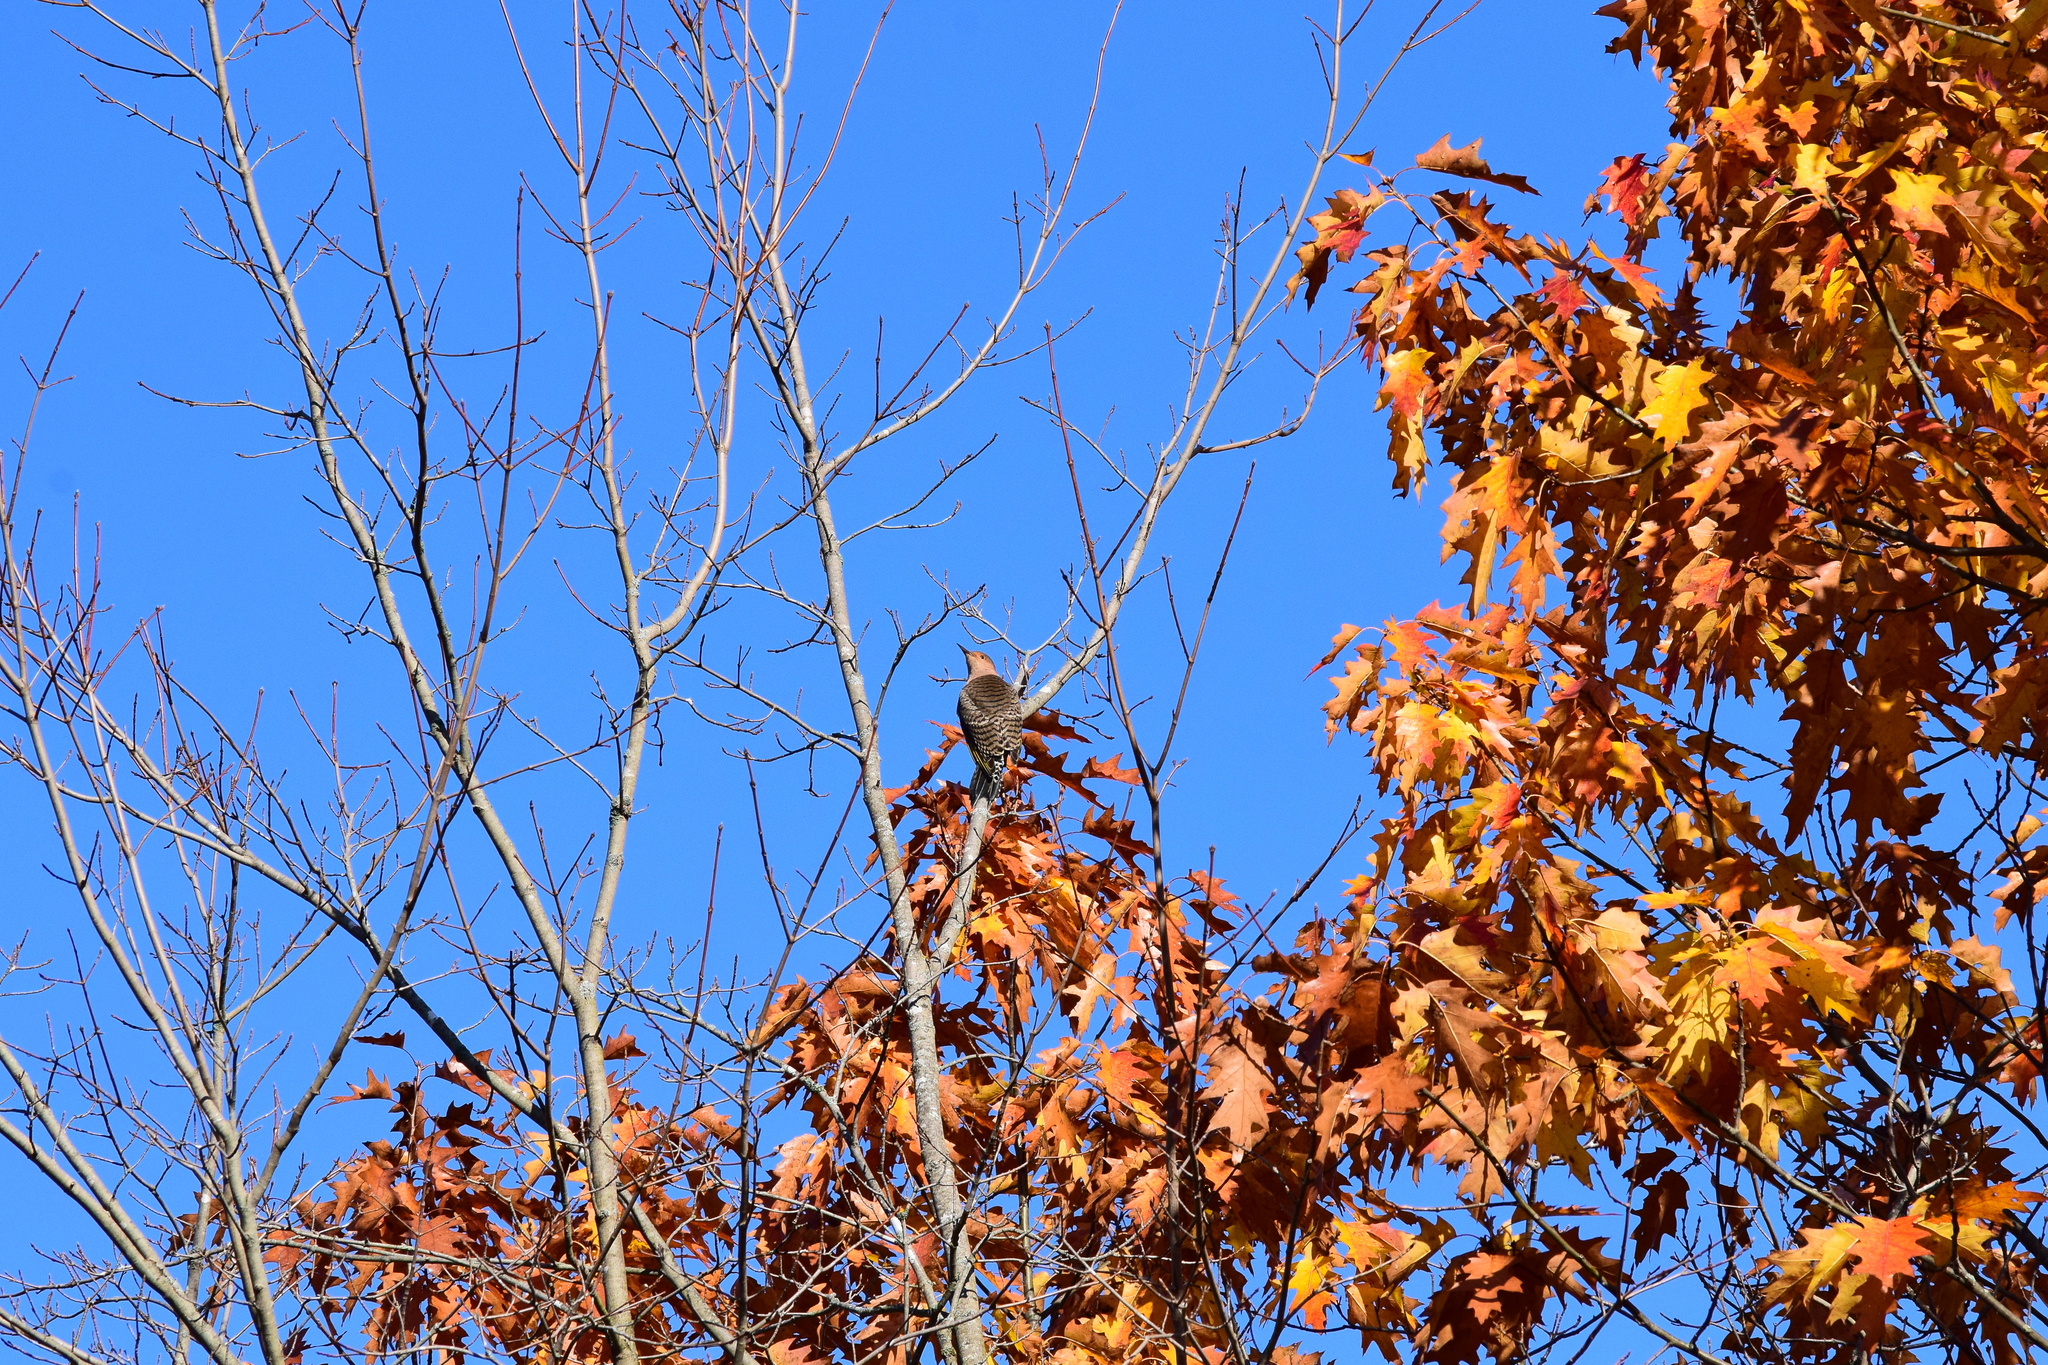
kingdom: Animalia
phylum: Chordata
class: Aves
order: Piciformes
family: Picidae
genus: Colaptes
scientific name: Colaptes auratus
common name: Northern flicker
